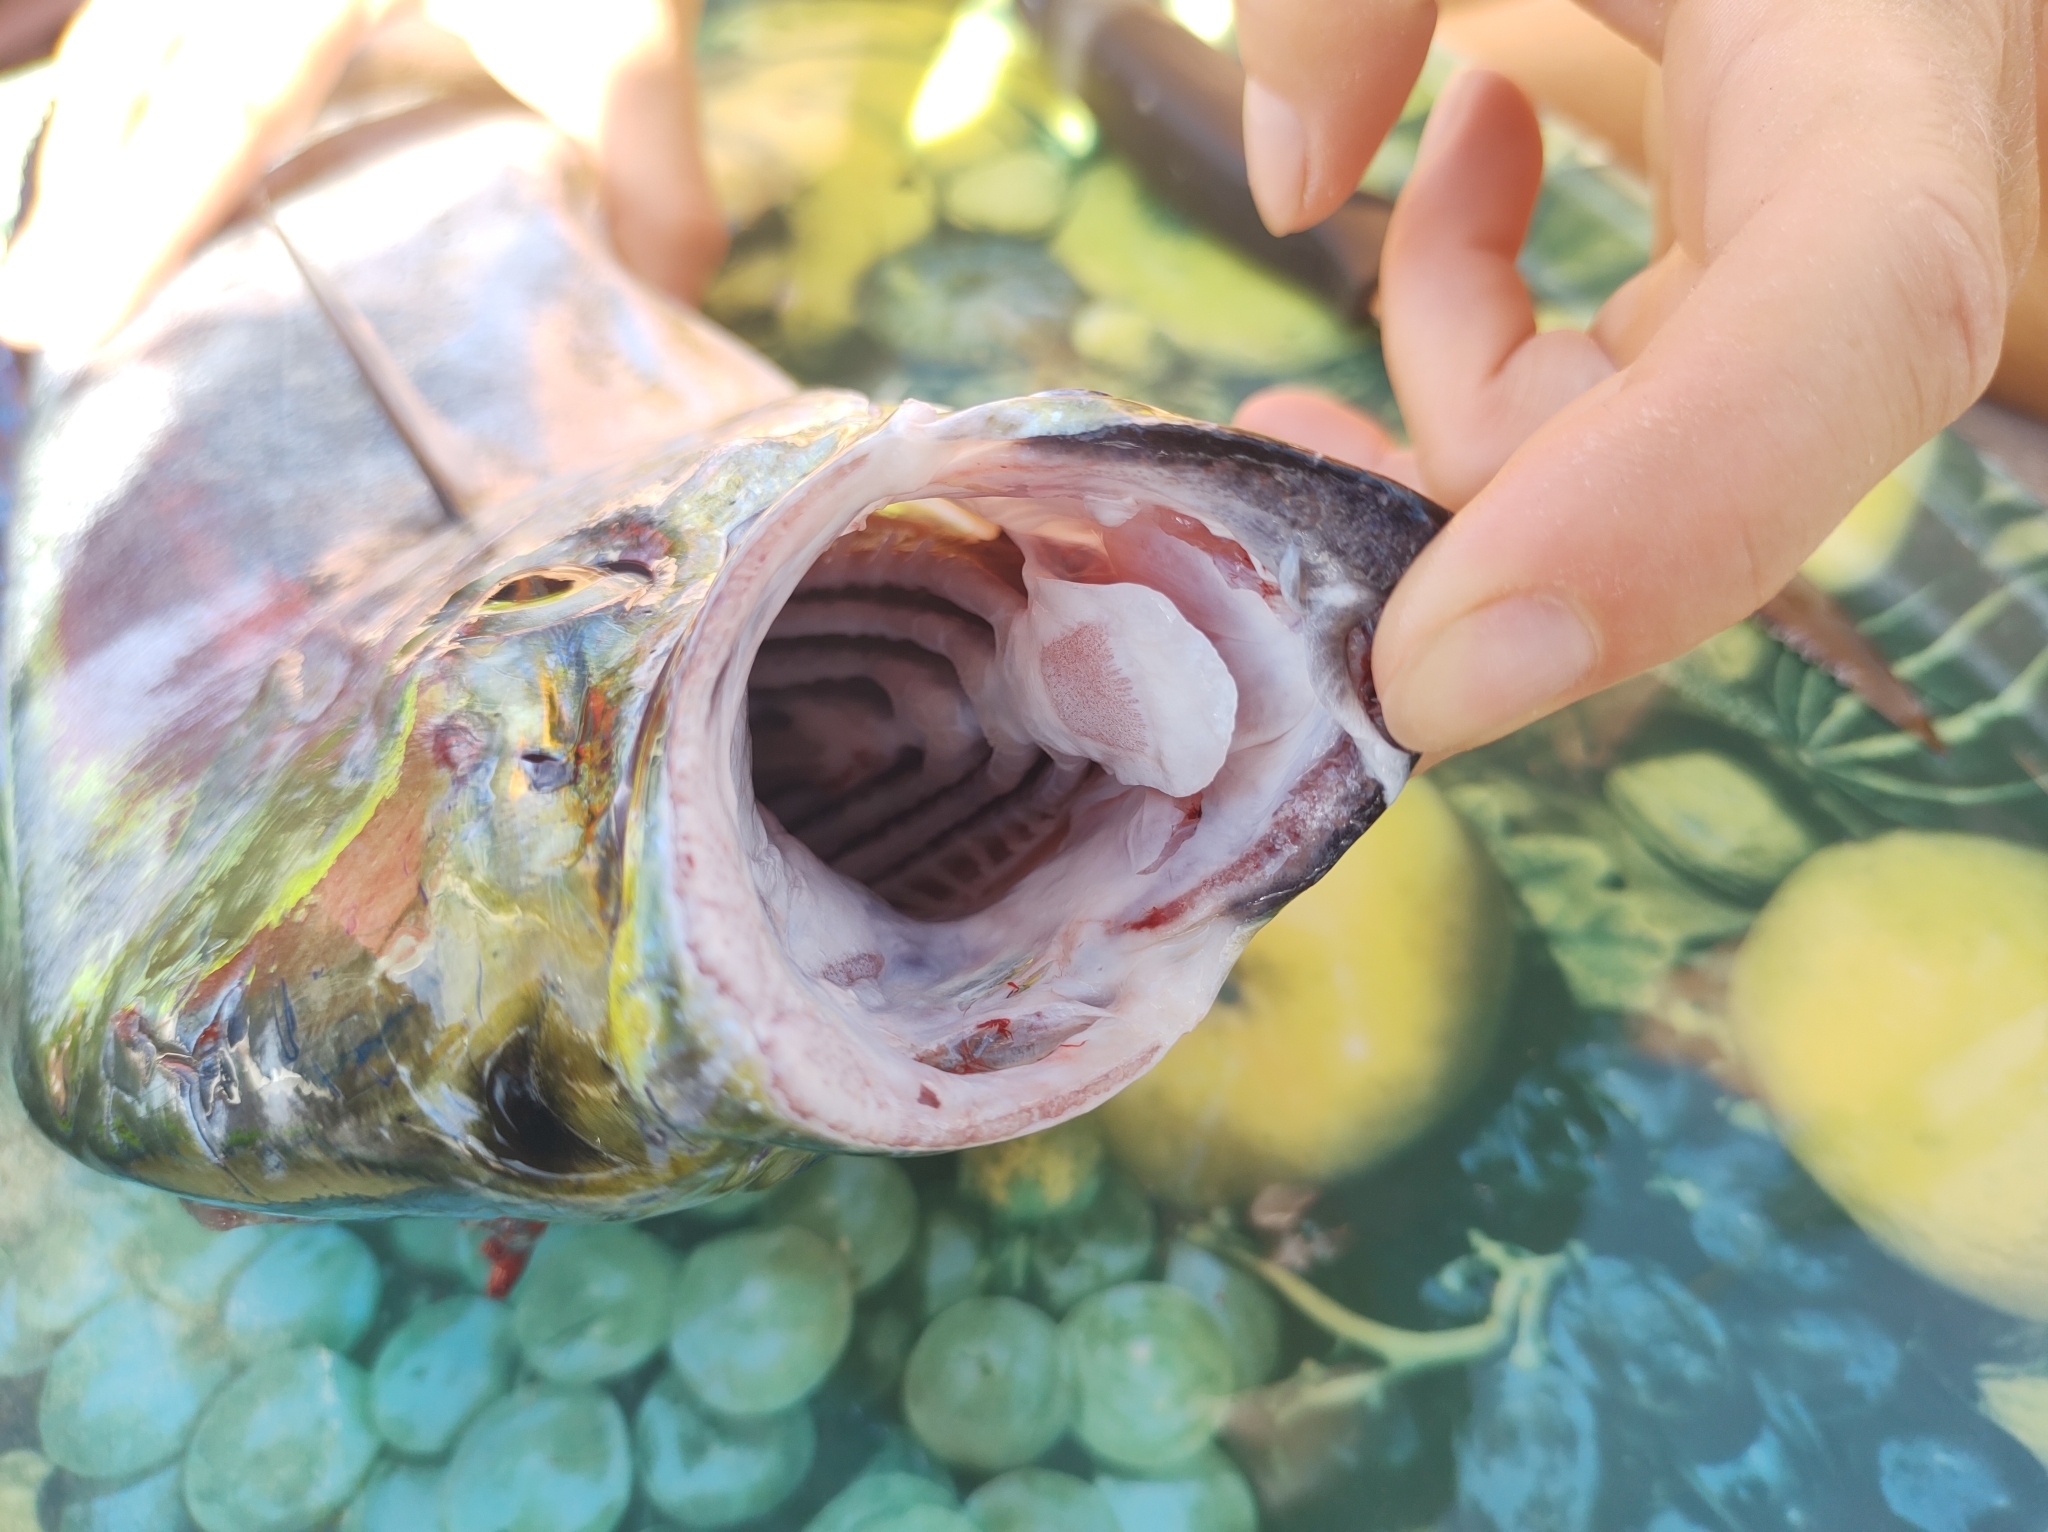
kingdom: Animalia
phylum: Chordata
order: Perciformes
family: Coryphaenidae
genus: Coryphaena
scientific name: Coryphaena hippurus
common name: Dolphin
